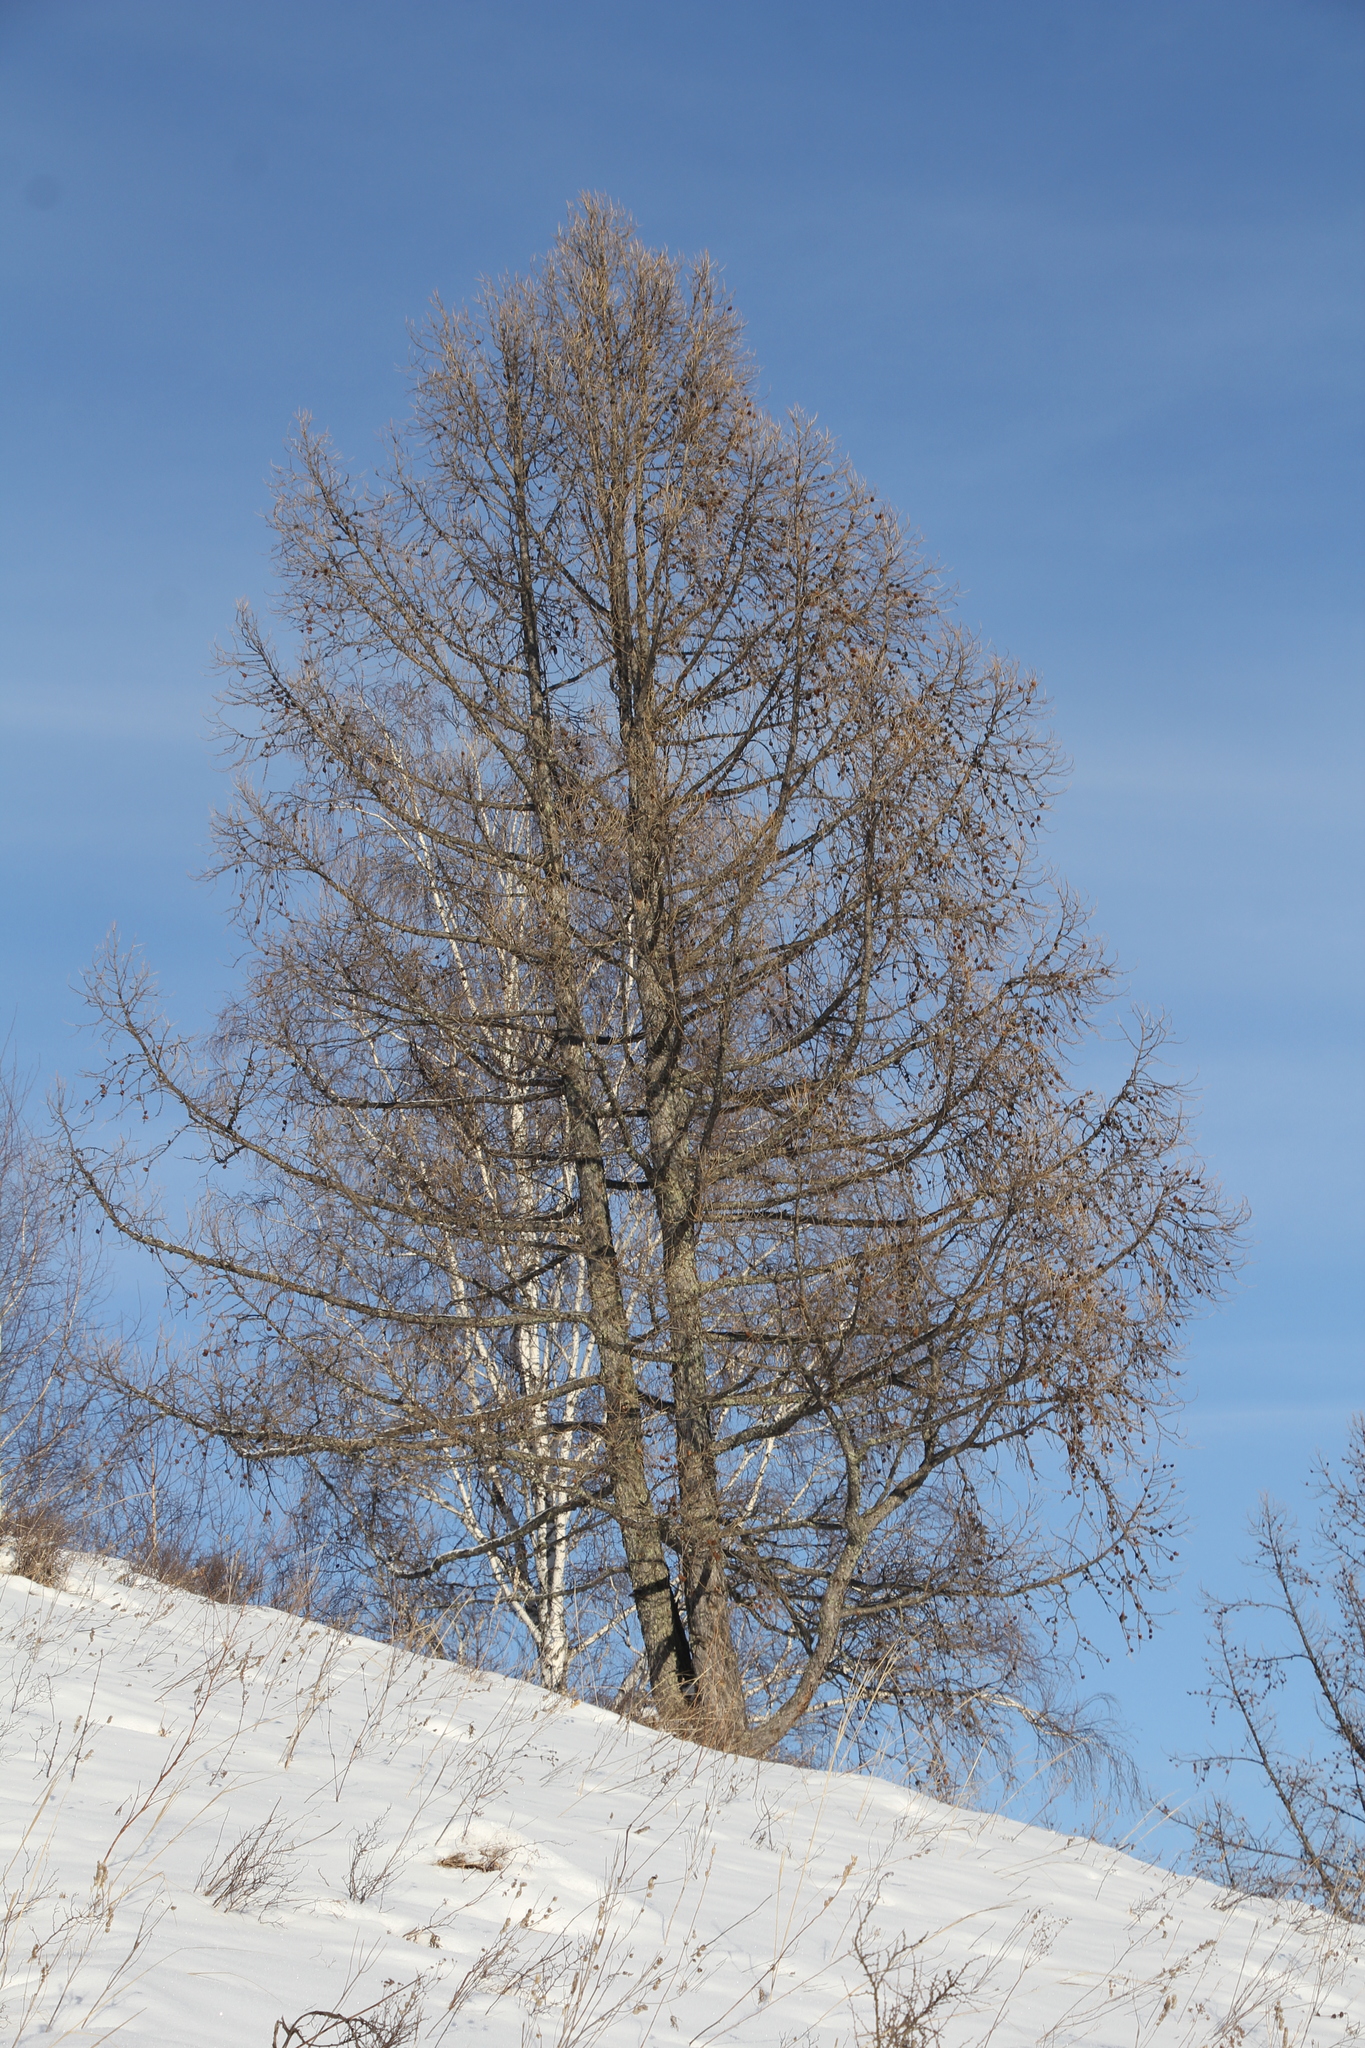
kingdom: Plantae
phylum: Tracheophyta
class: Pinopsida
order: Pinales
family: Pinaceae
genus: Larix
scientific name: Larix sibirica
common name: Siberian larch
